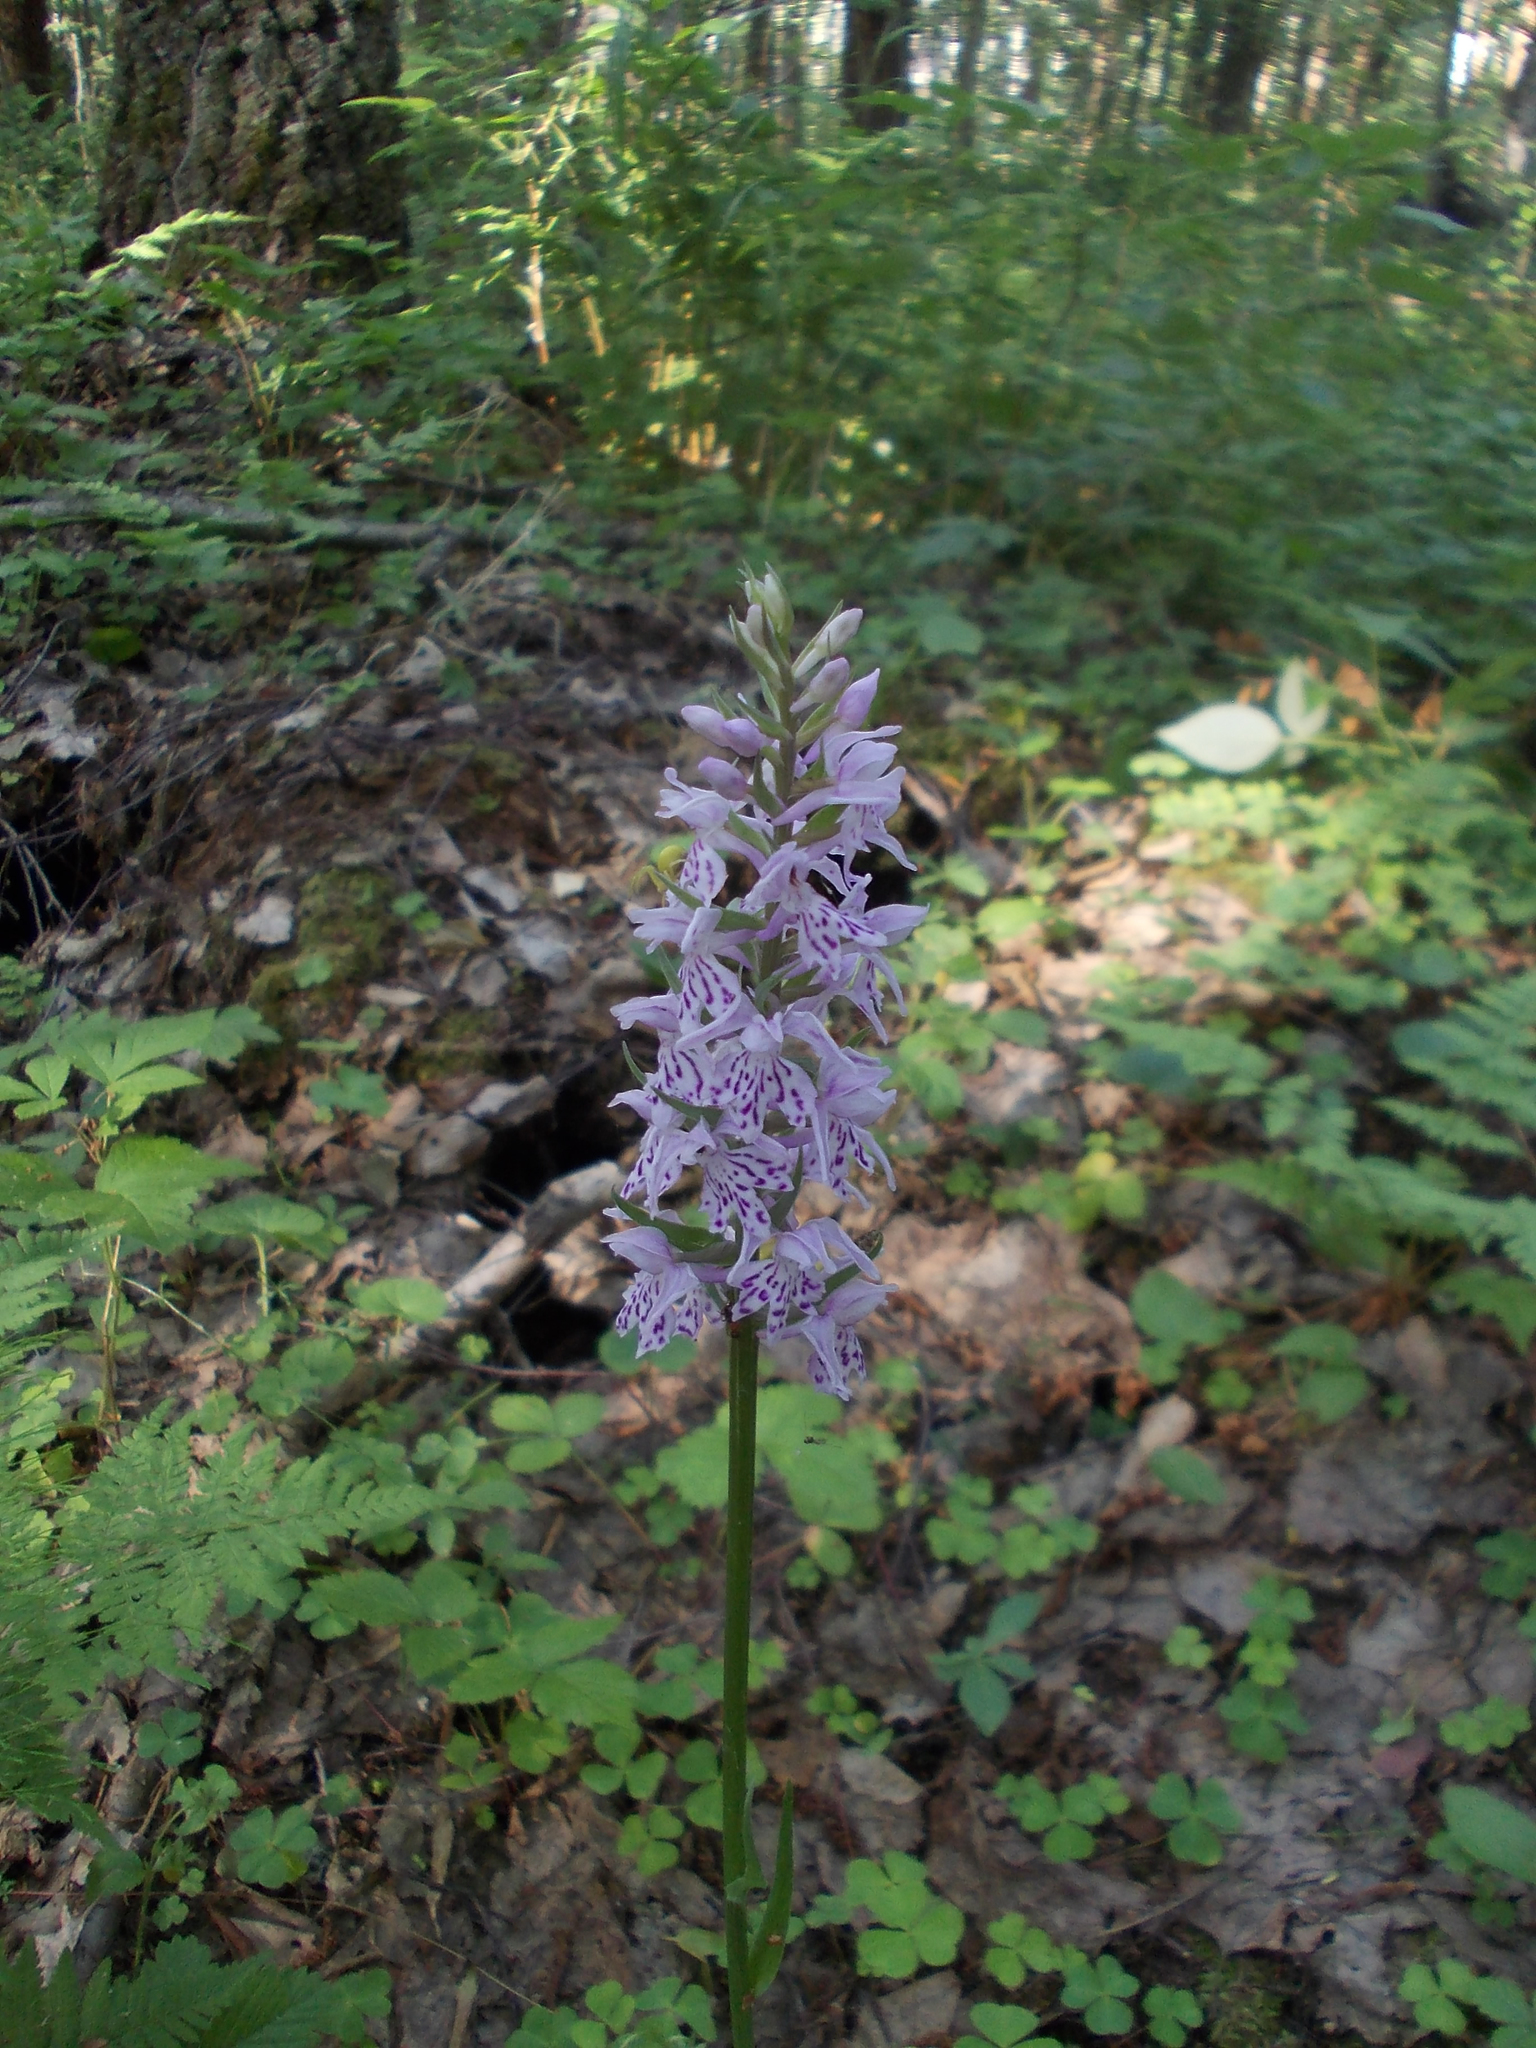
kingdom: Plantae
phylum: Tracheophyta
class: Liliopsida
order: Asparagales
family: Orchidaceae
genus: Dactylorhiza
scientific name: Dactylorhiza maculata
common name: Heath spotted-orchid
